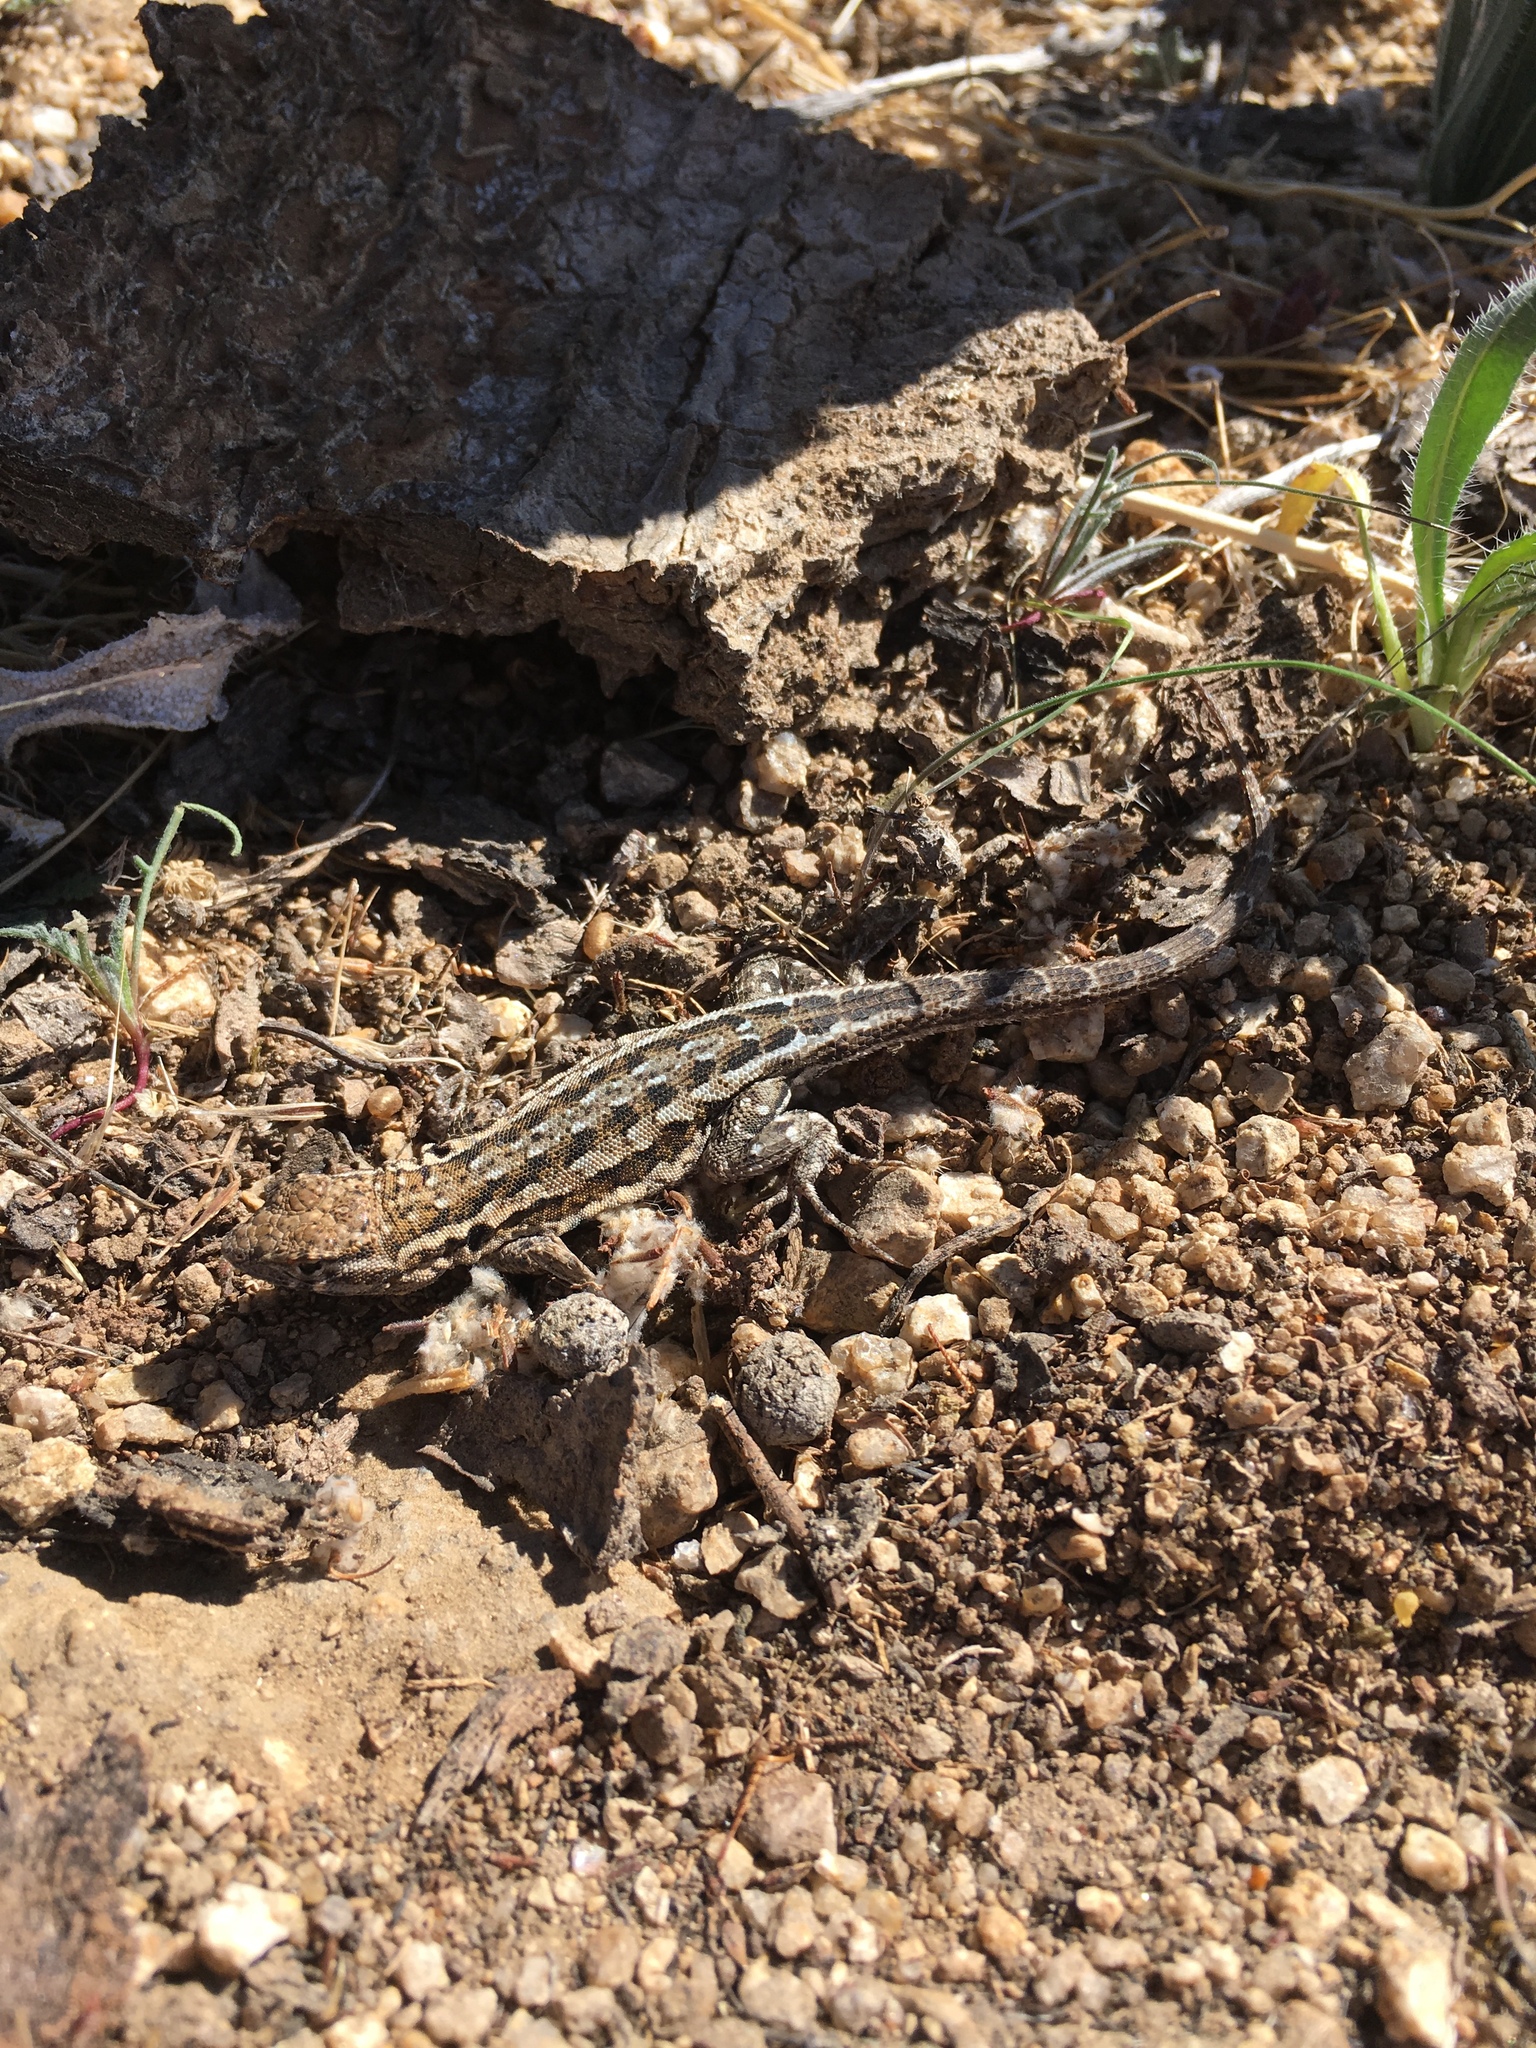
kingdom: Animalia
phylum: Chordata
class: Squamata
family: Phrynosomatidae
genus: Uta
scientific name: Uta stansburiana
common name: Side-blotched lizard
